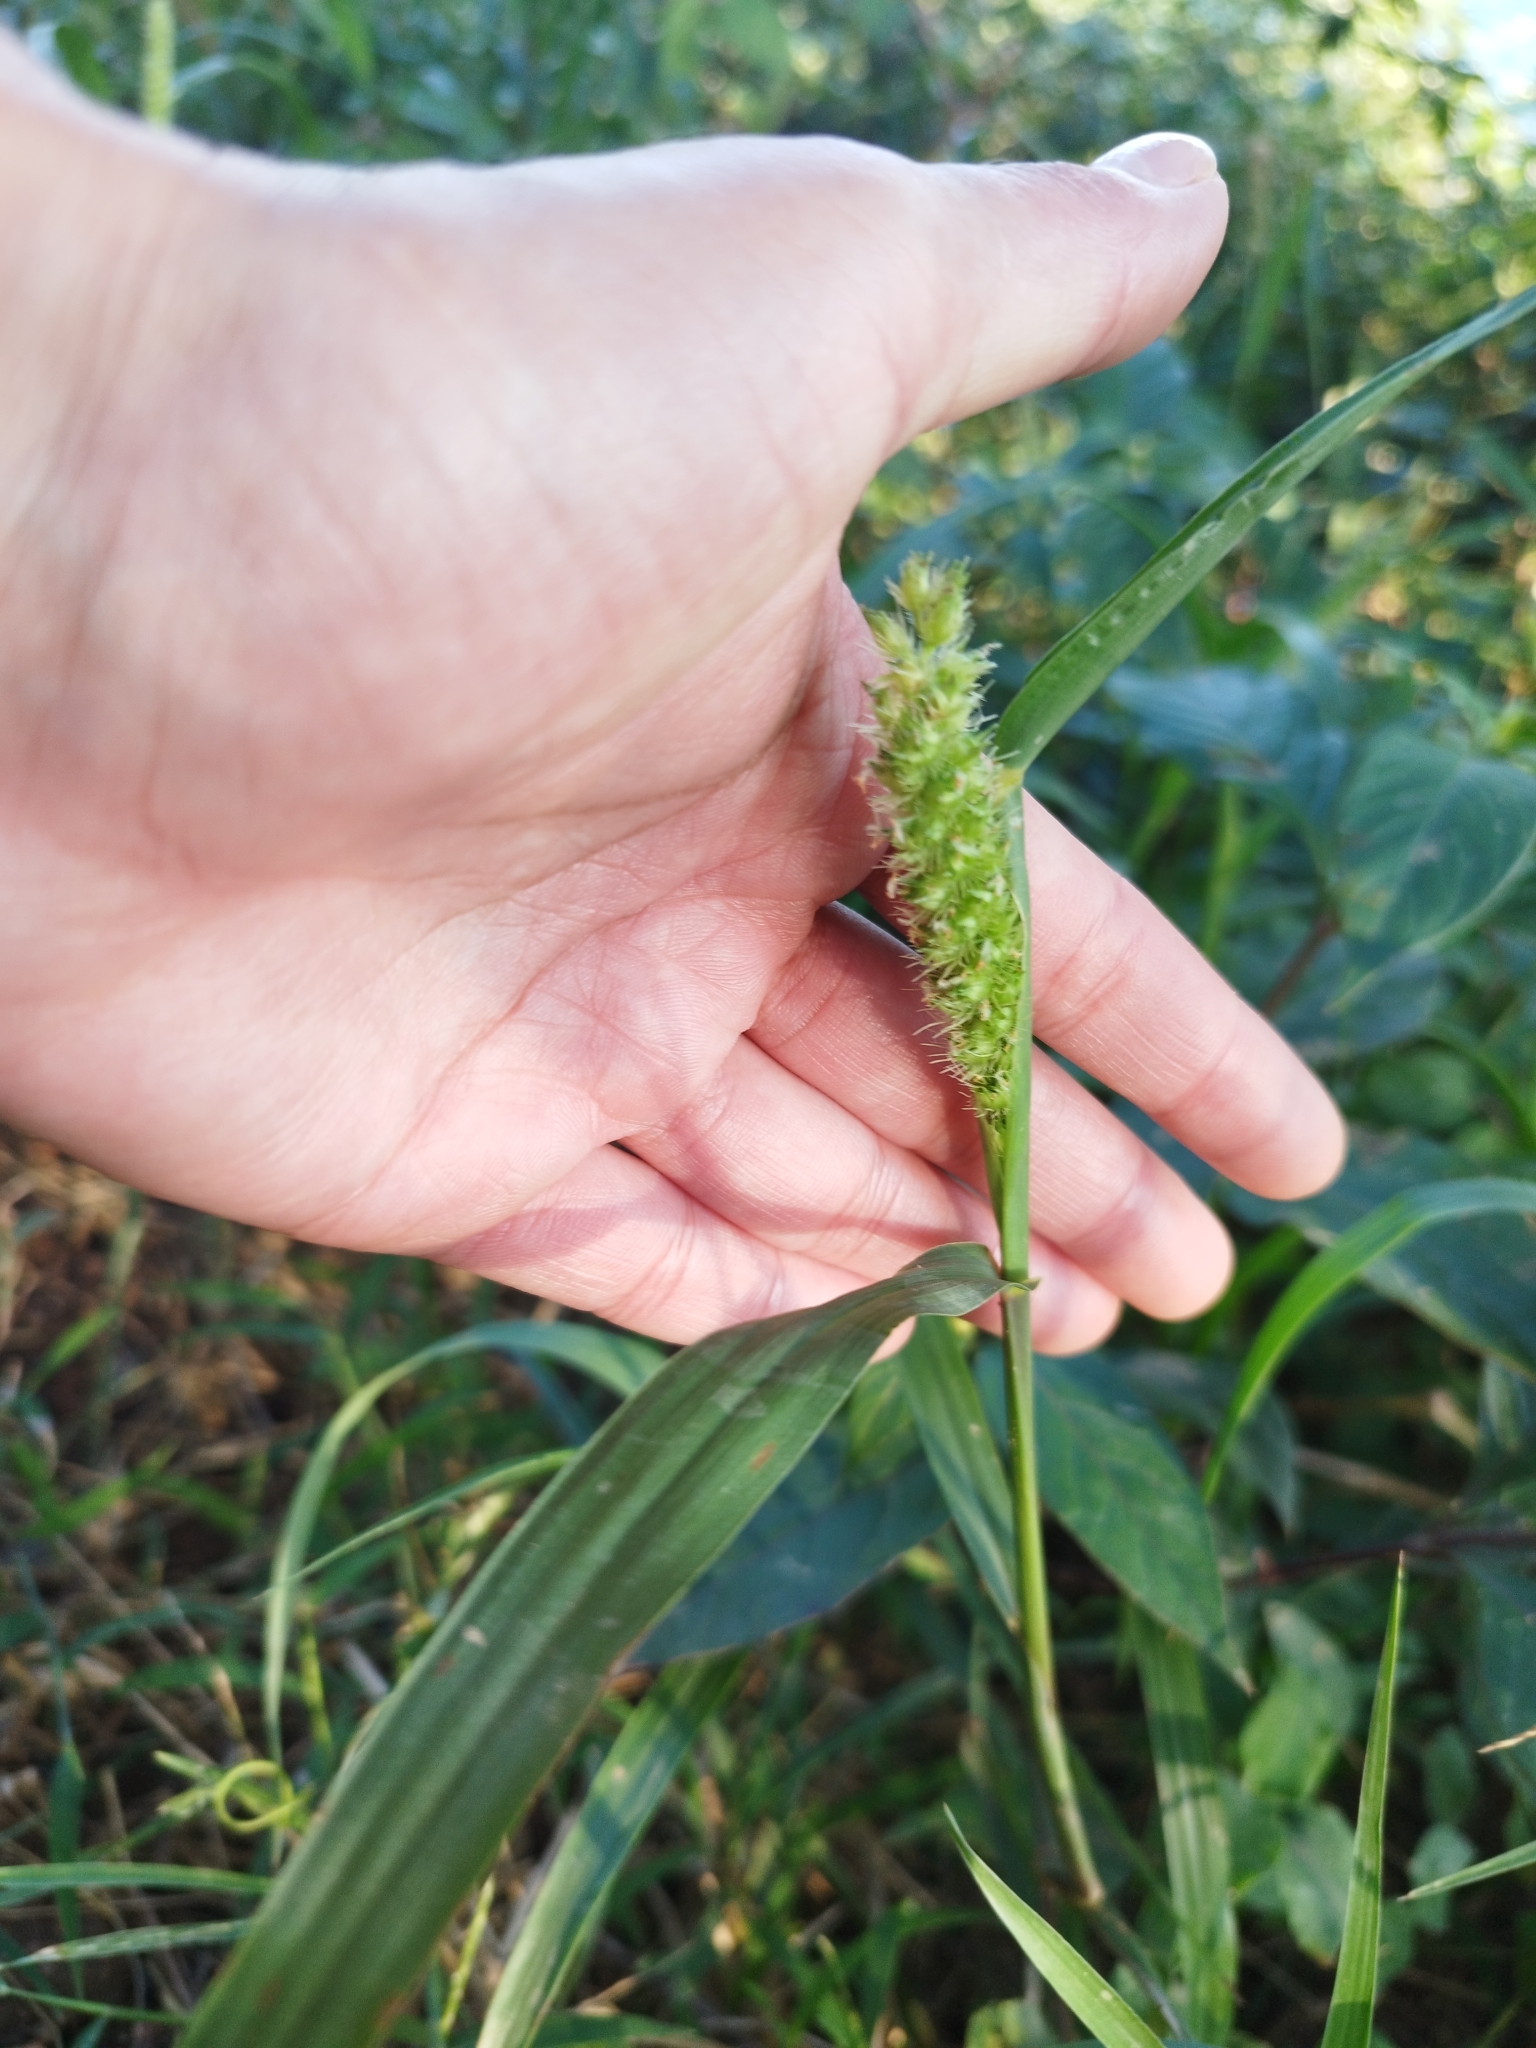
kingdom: Plantae
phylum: Tracheophyta
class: Liliopsida
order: Poales
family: Poaceae
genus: Cenchrus
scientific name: Cenchrus echinatus
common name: Southern sandbur
